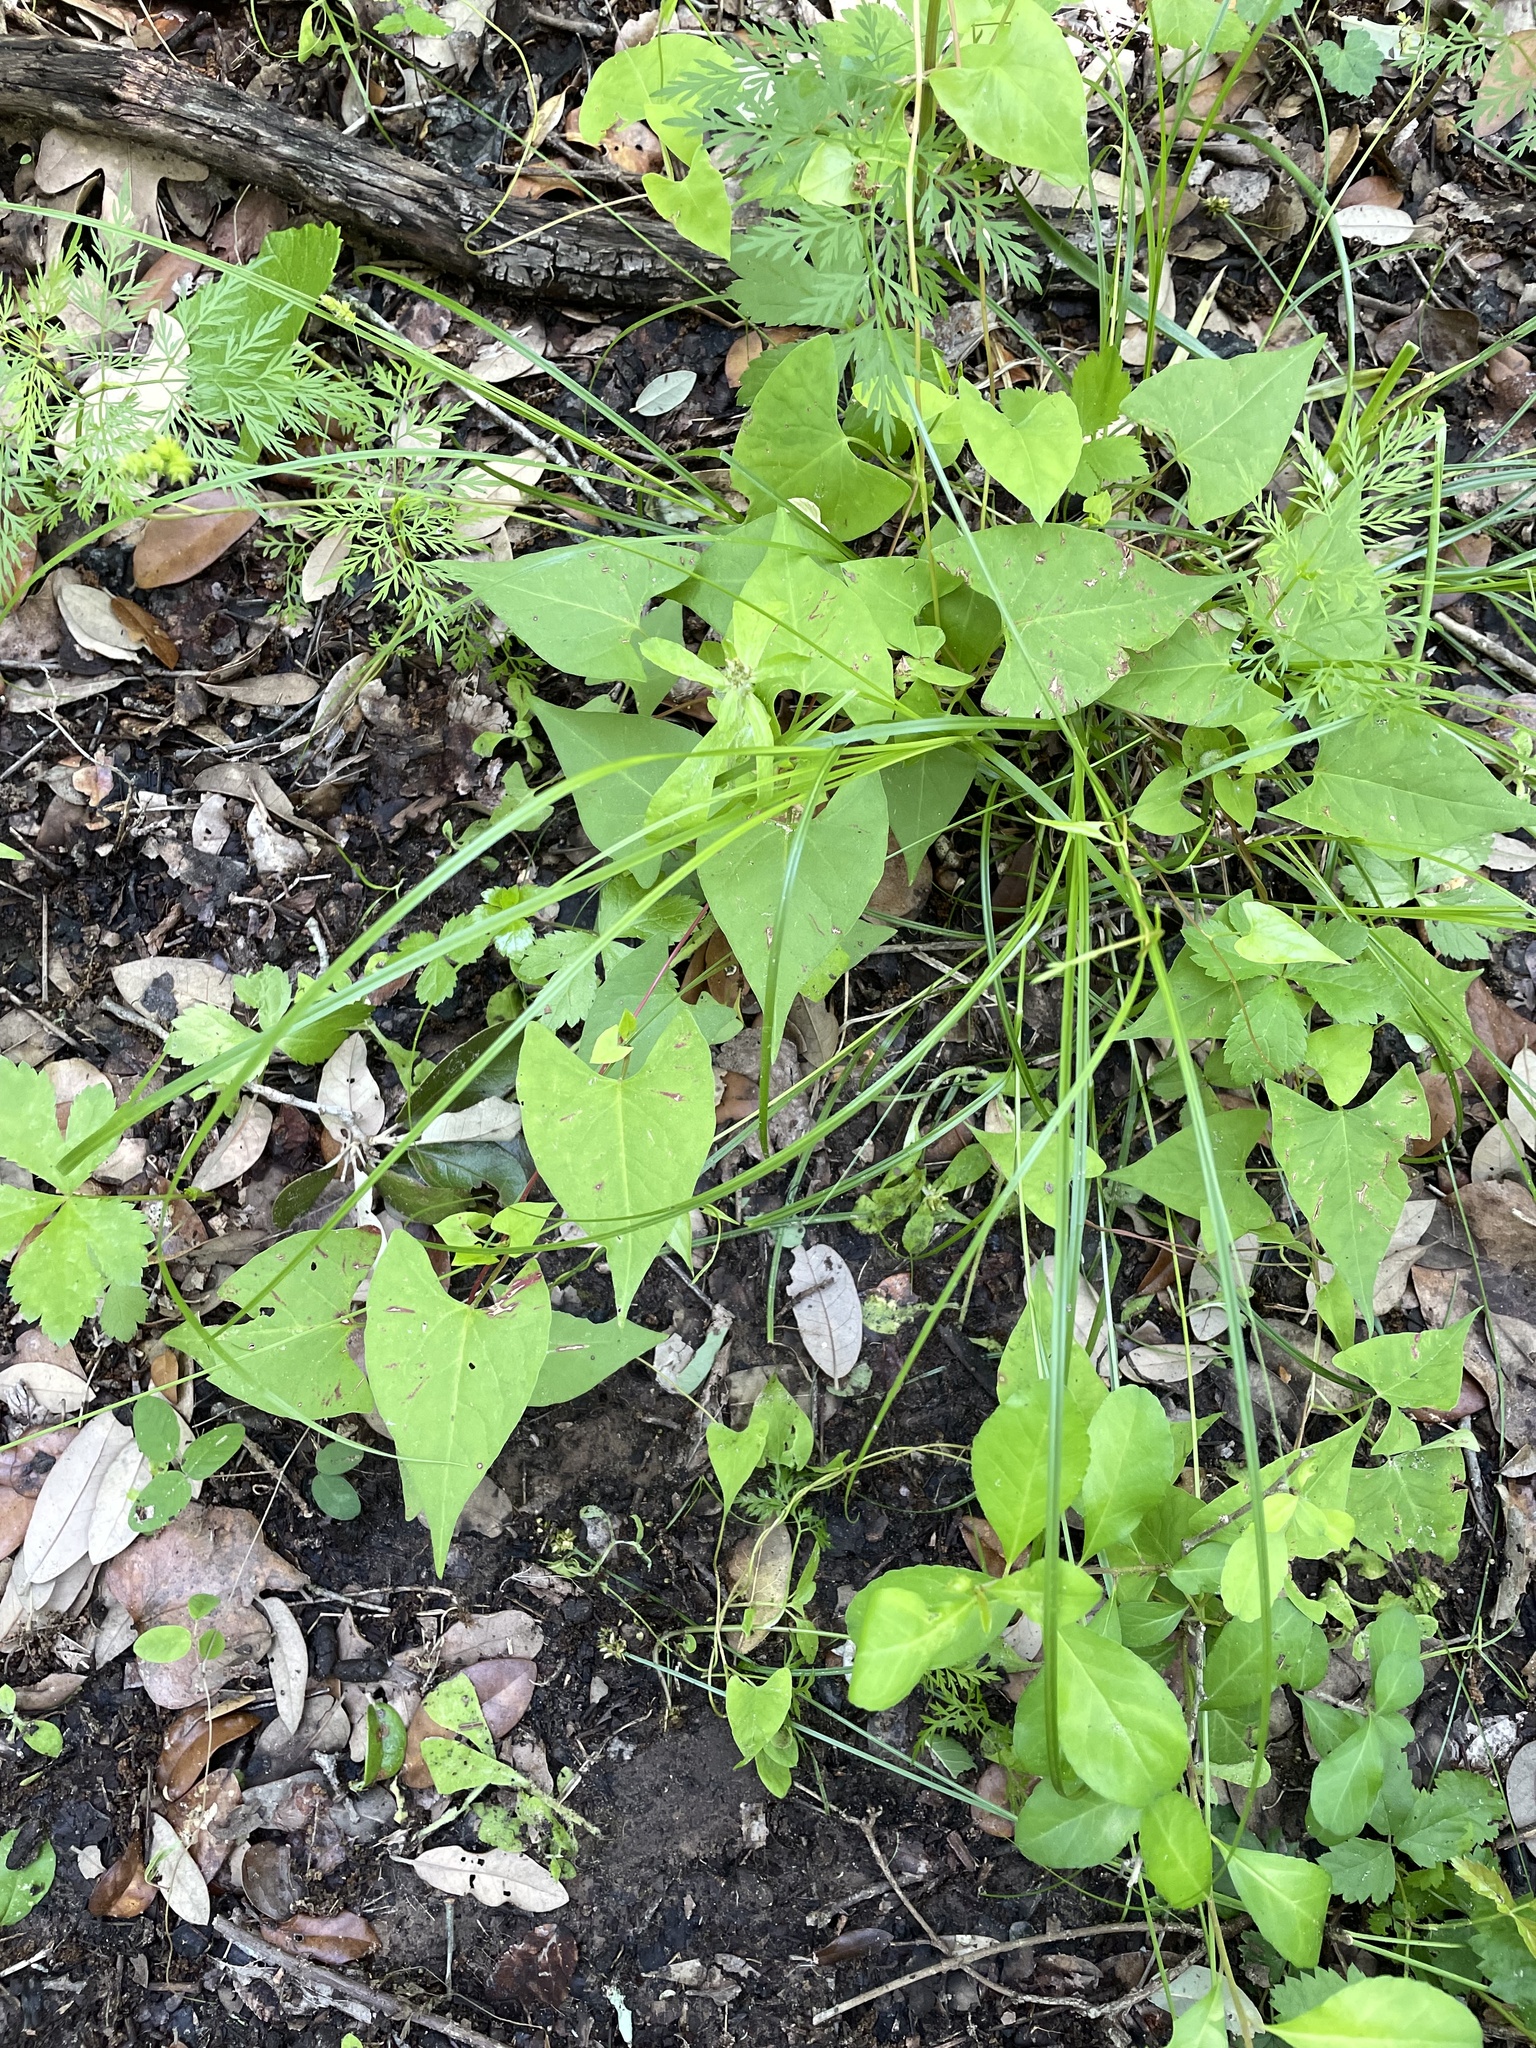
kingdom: Plantae
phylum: Tracheophyta
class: Magnoliopsida
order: Caryophyllales
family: Polygonaceae
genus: Fallopia
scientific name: Fallopia scandens
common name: Climbing false buckwheat
